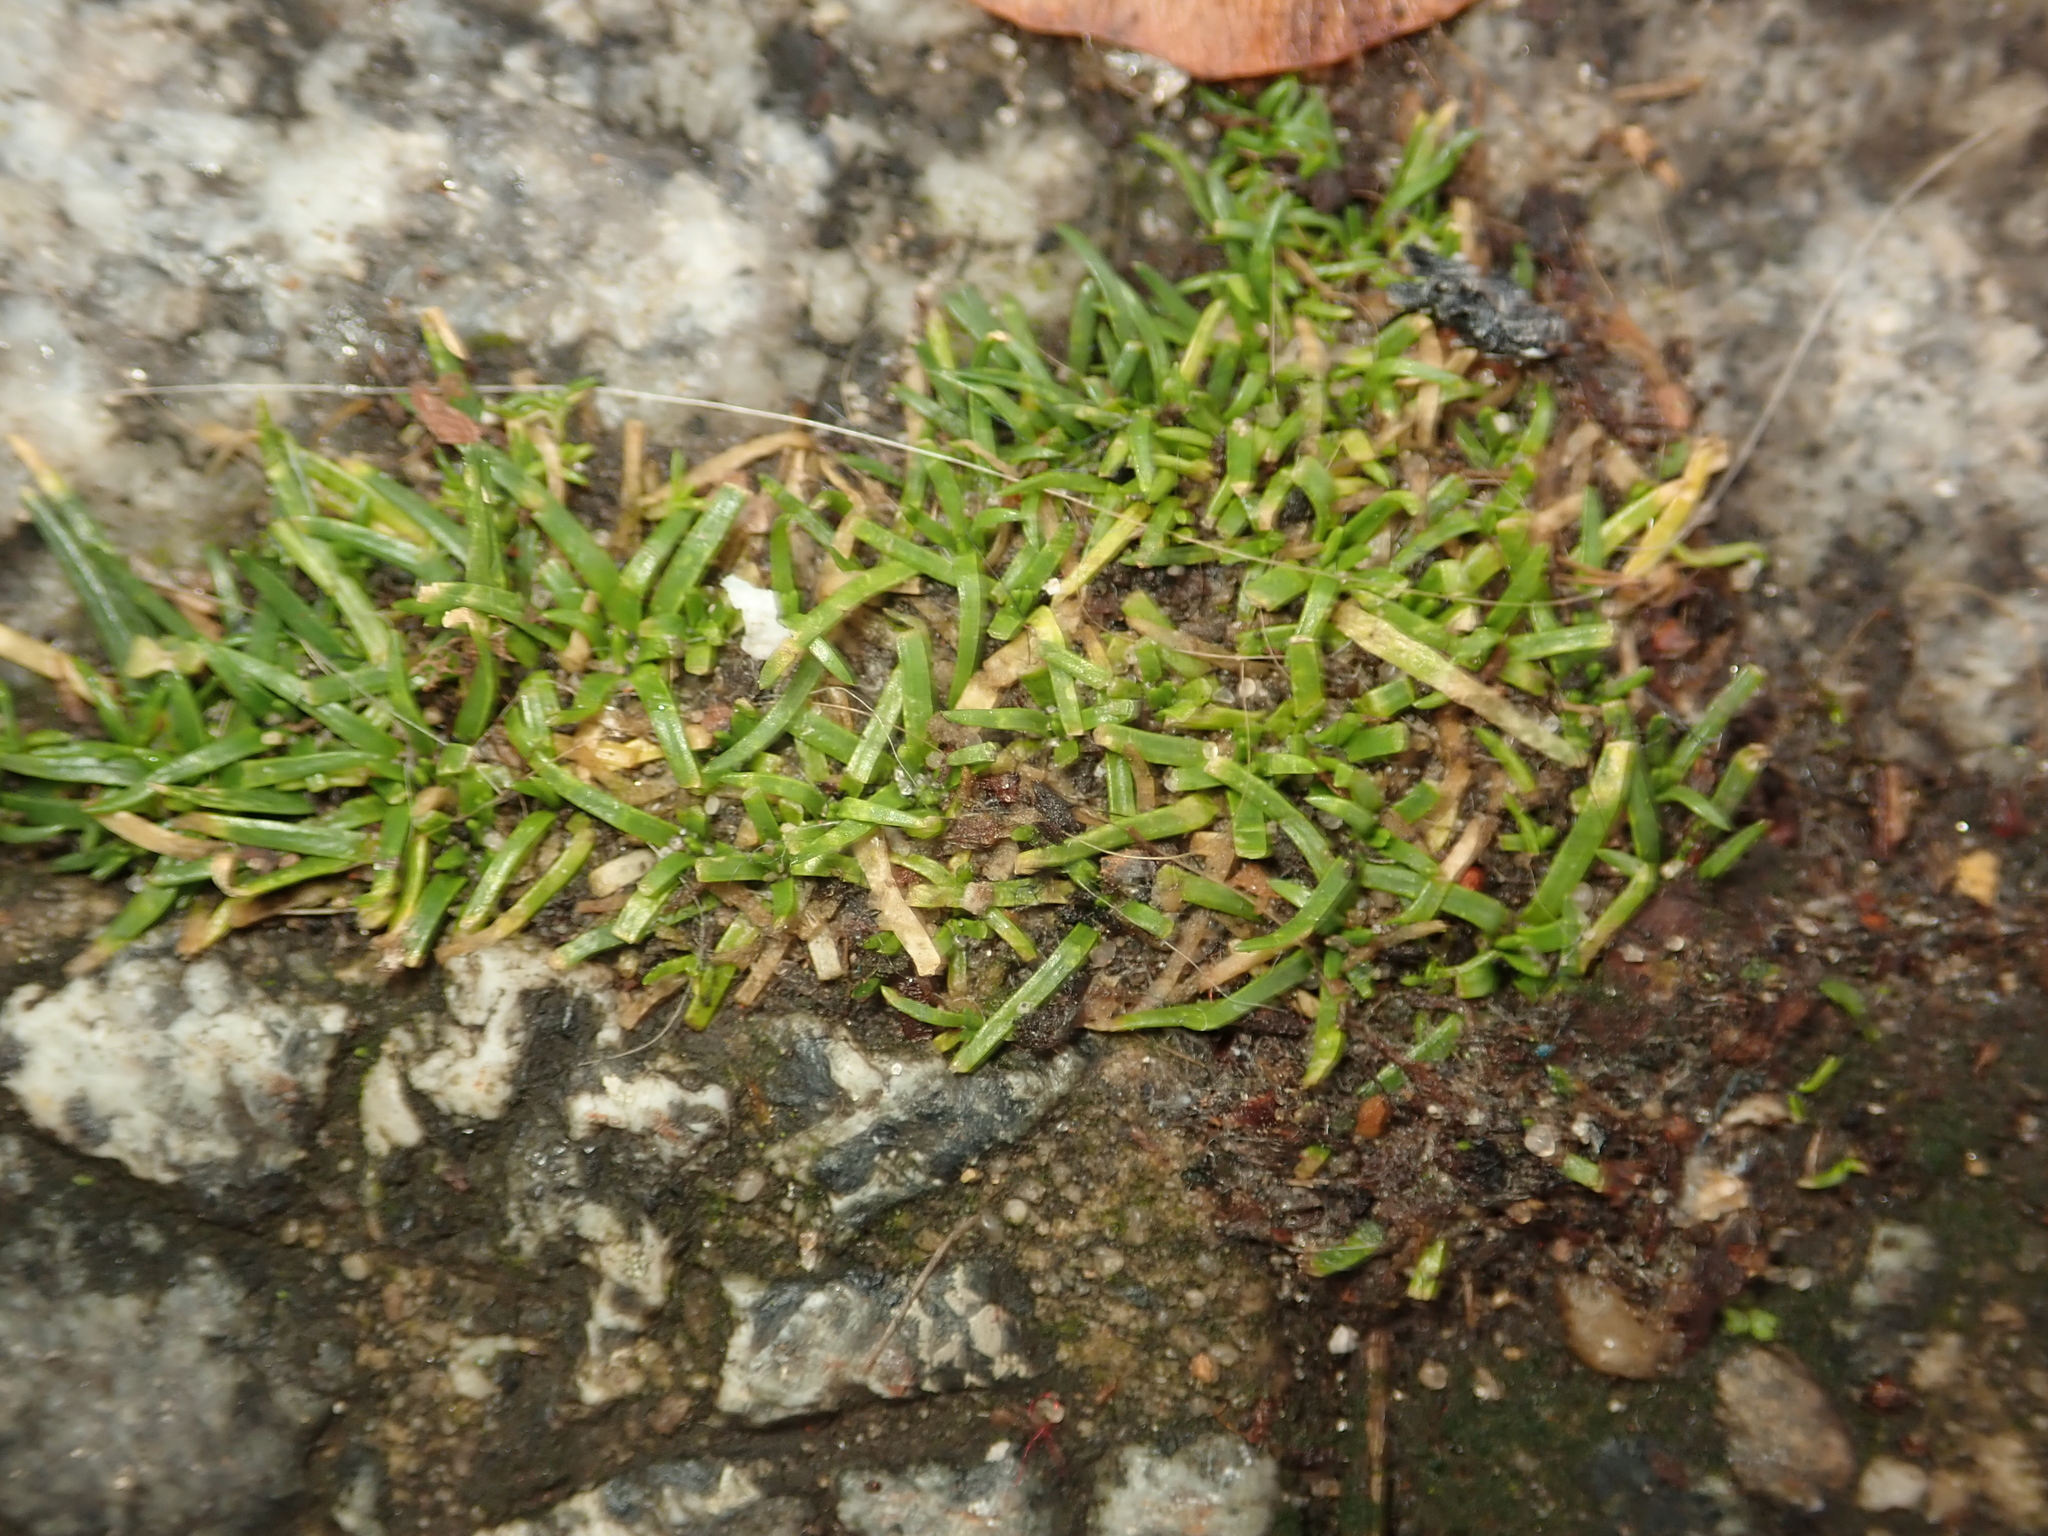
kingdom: Plantae
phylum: Tracheophyta
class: Magnoliopsida
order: Caryophyllales
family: Caryophyllaceae
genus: Sagina
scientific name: Sagina procumbens
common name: Procumbent pearlwort
